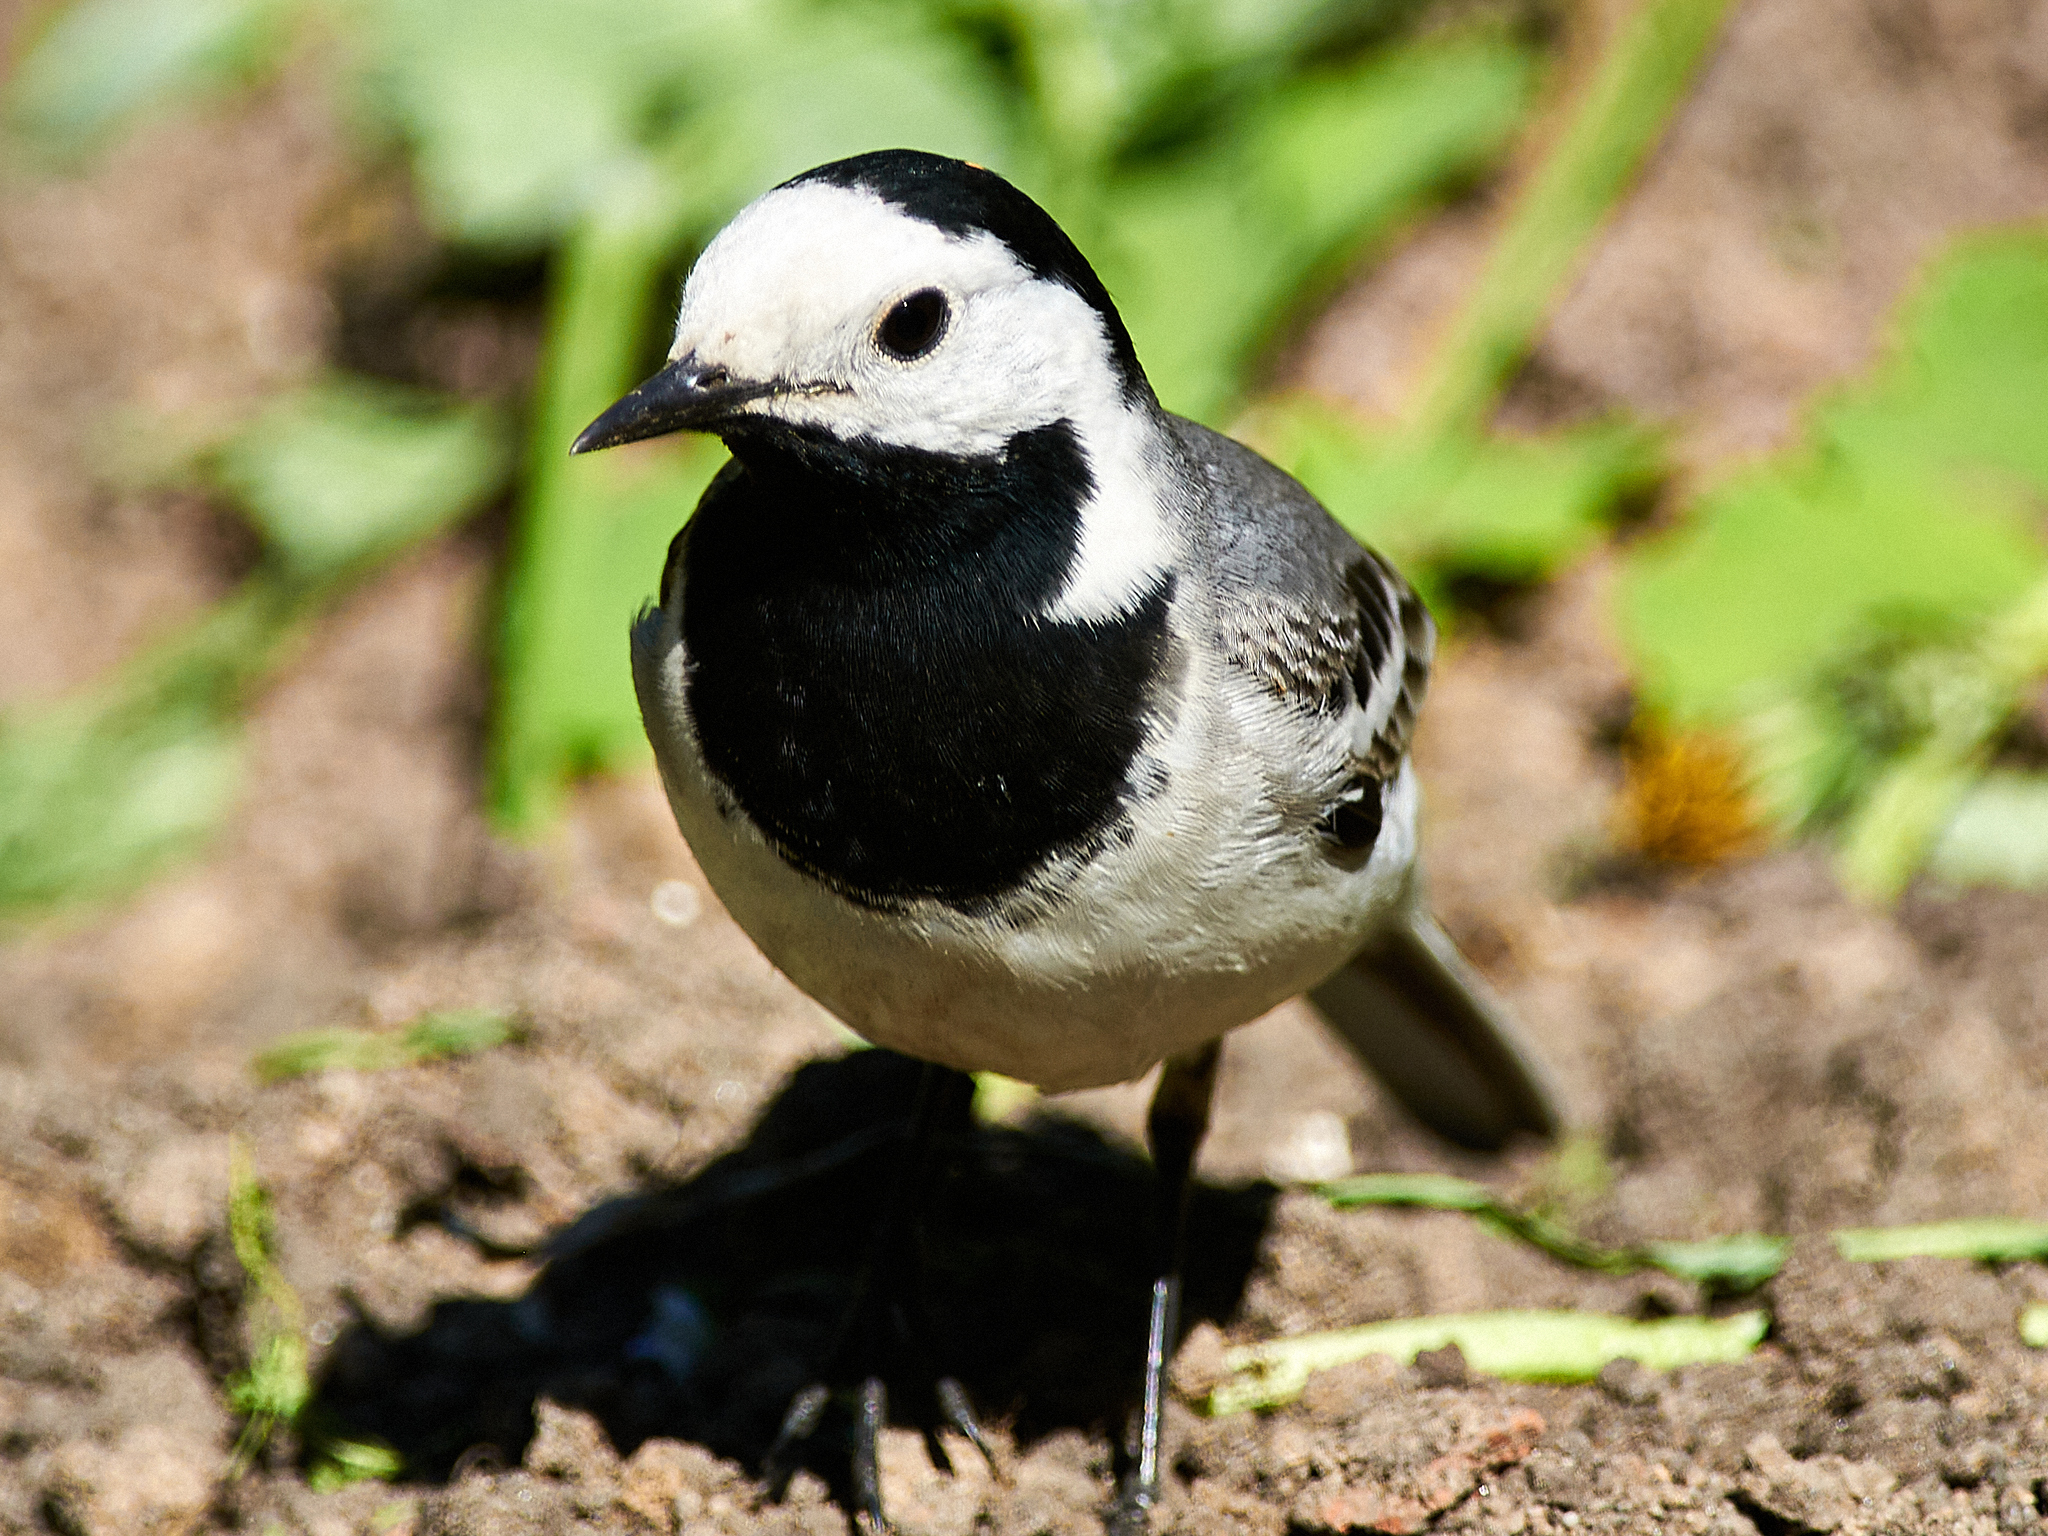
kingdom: Animalia
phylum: Chordata
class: Aves
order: Passeriformes
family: Motacillidae
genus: Motacilla
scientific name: Motacilla alba
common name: White wagtail
